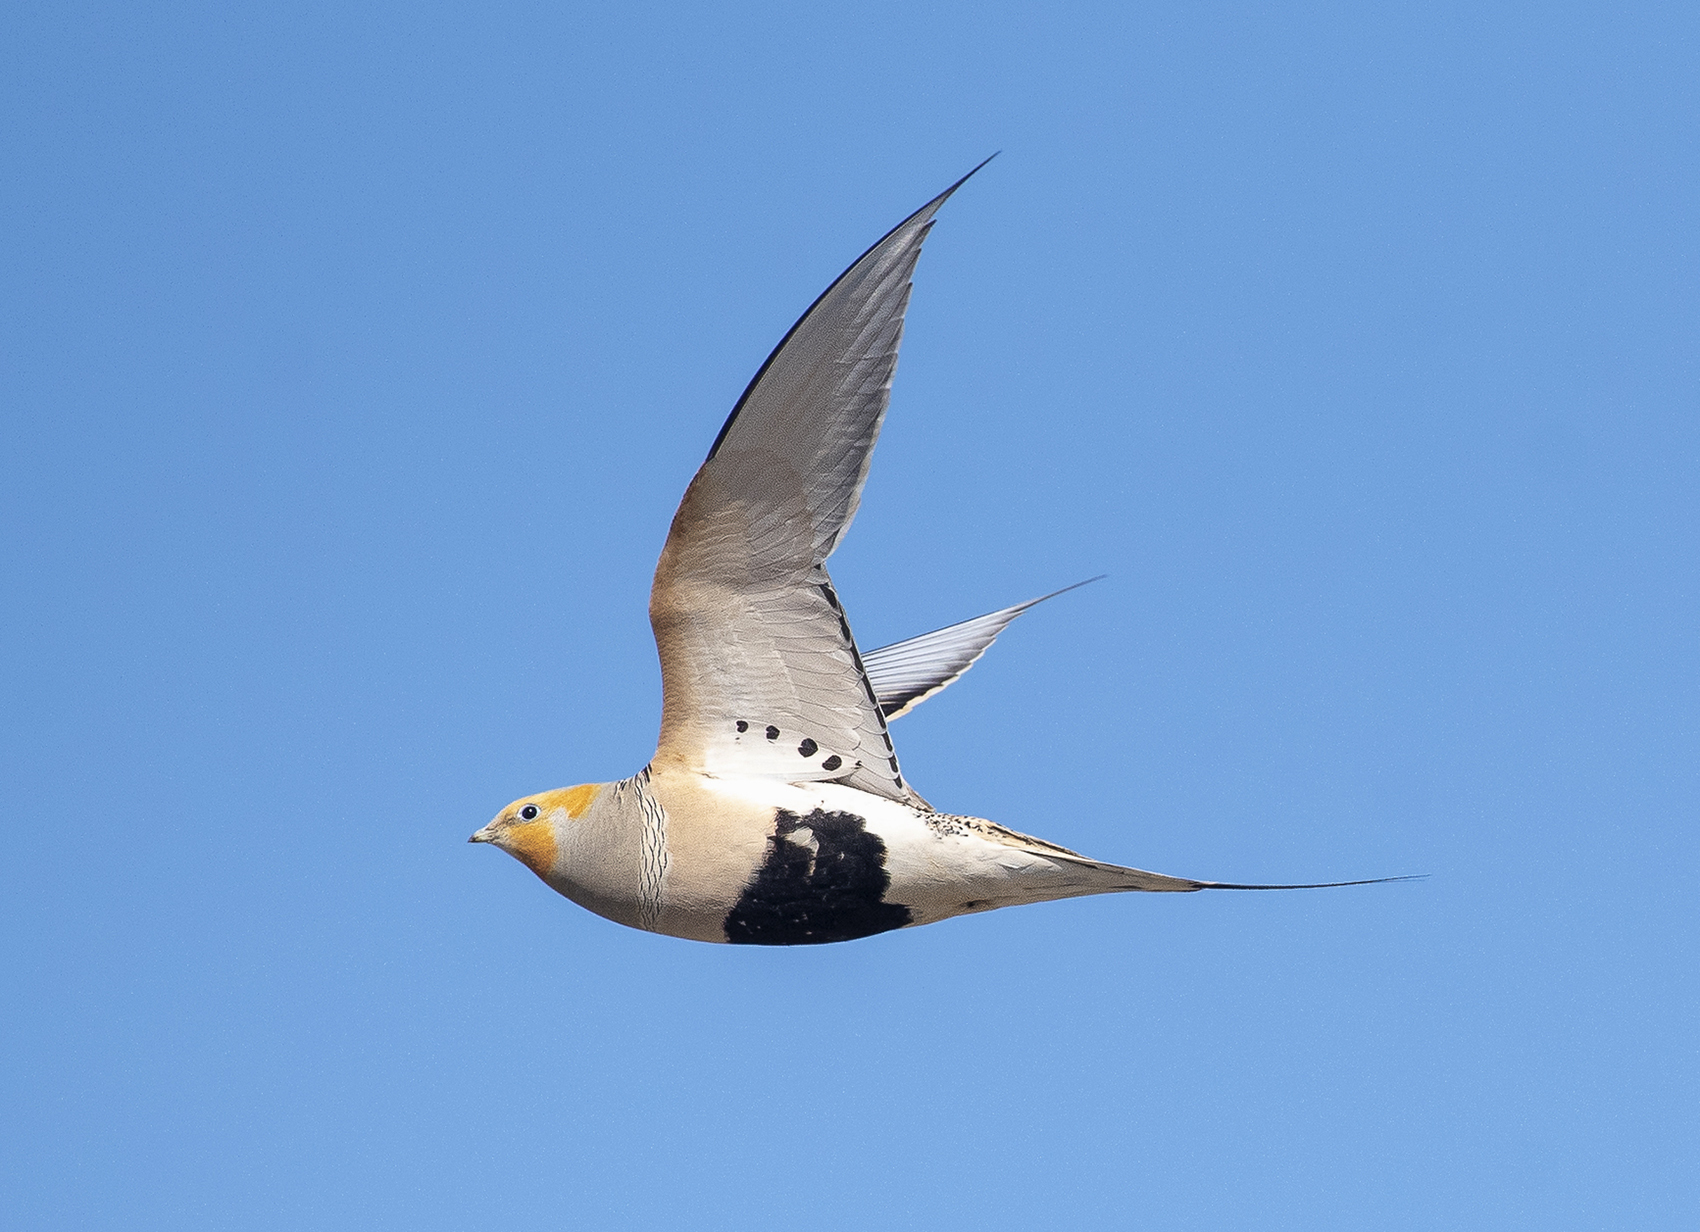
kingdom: Animalia
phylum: Chordata
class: Aves
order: Pteroclidiformes
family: Pteroclididae
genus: Syrrhaptes
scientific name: Syrrhaptes paradoxus
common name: Pallas's sandgrouse
